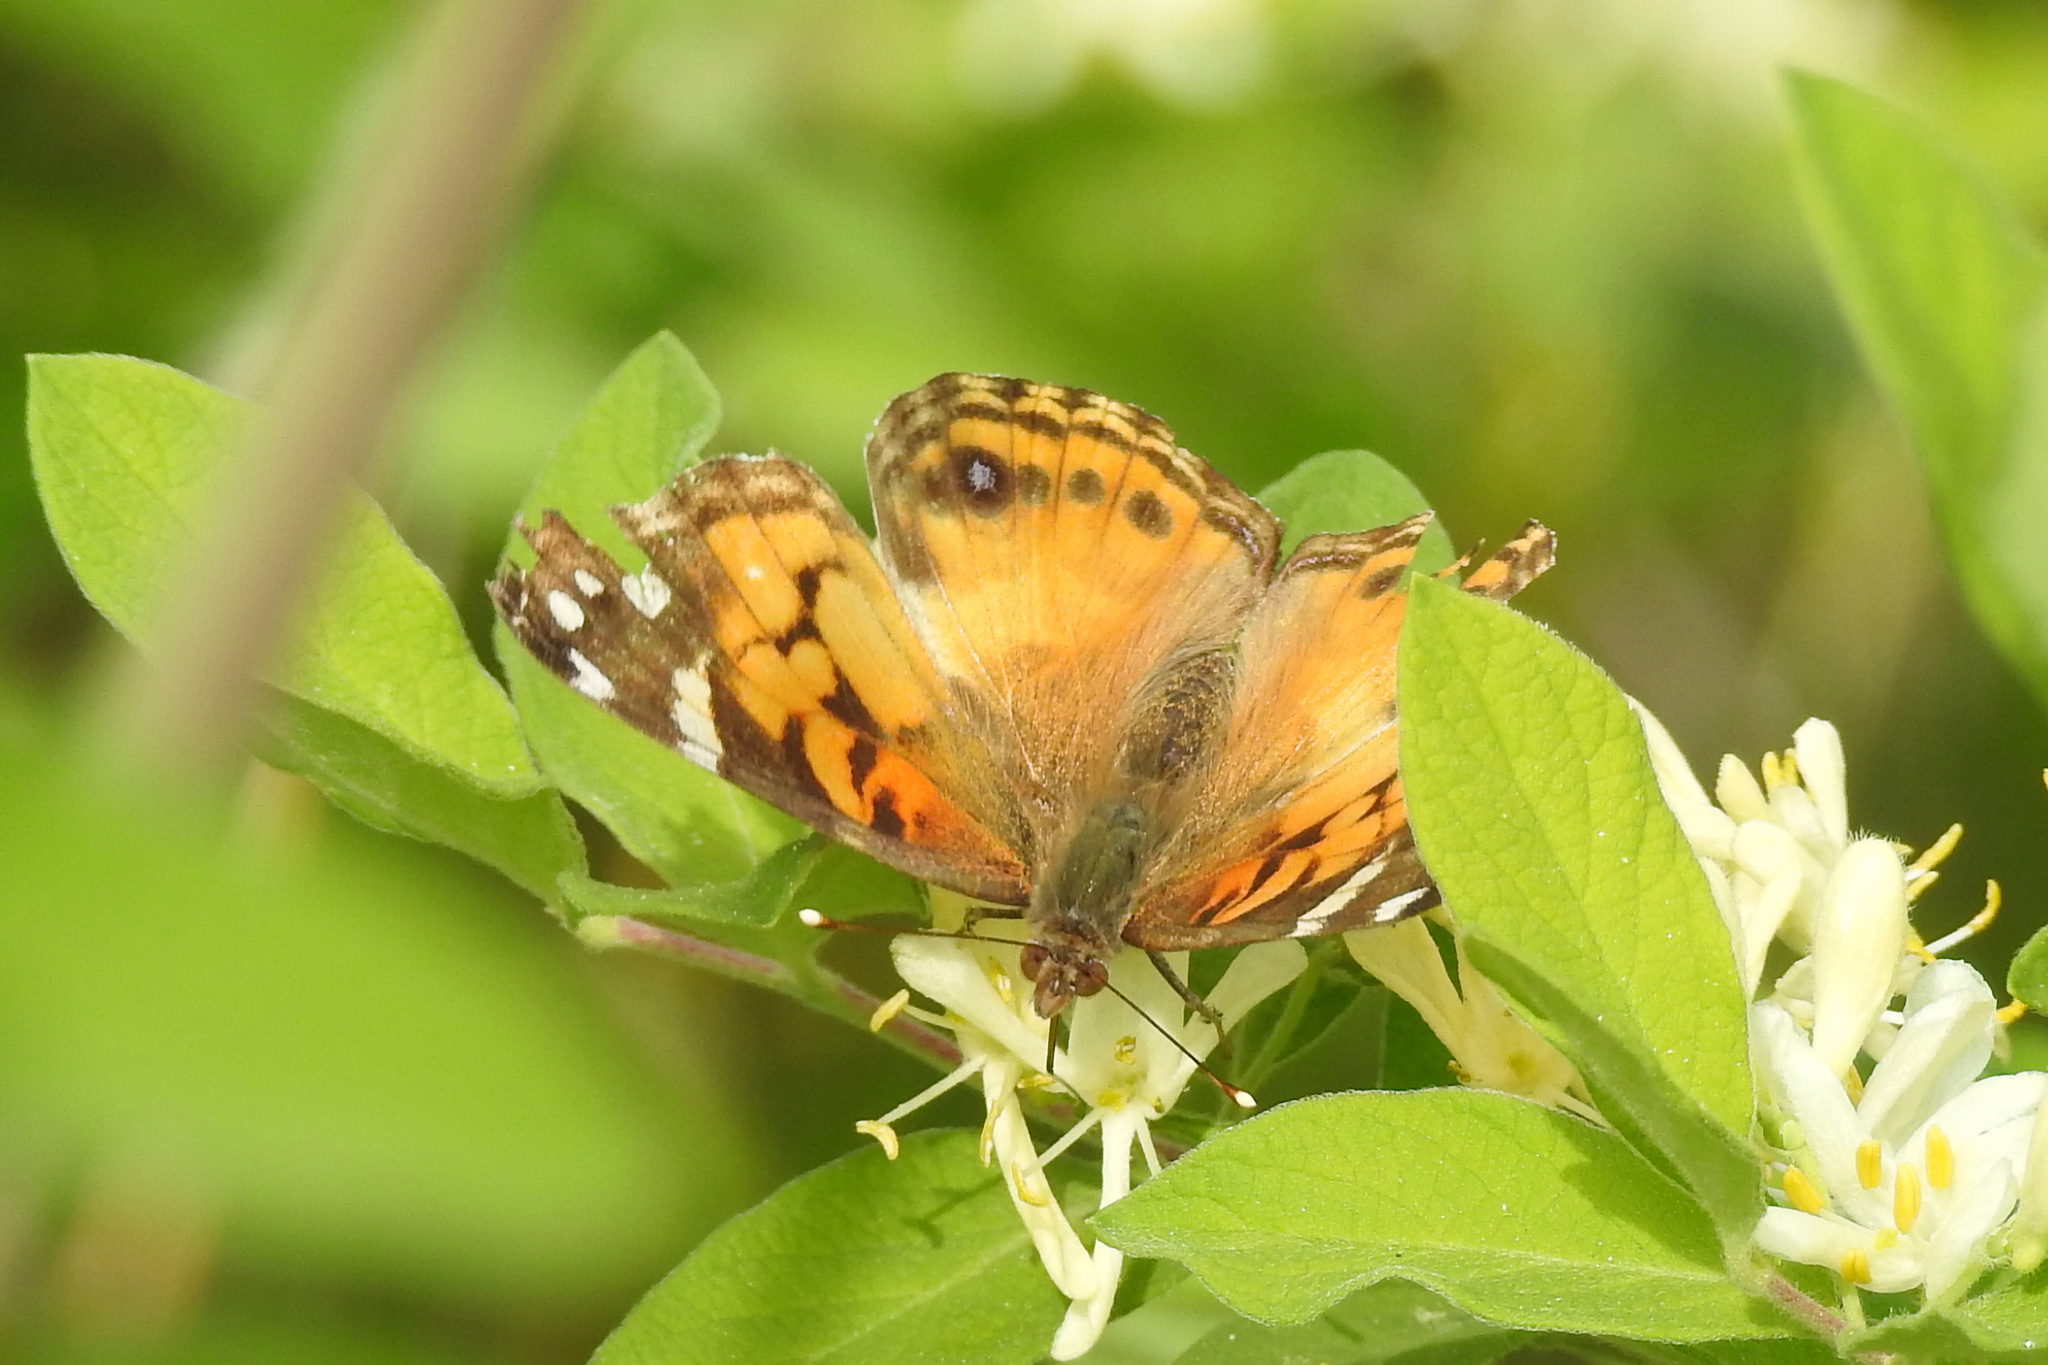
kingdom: Animalia
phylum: Arthropoda
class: Insecta
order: Lepidoptera
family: Nymphalidae
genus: Vanessa
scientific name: Vanessa virginiensis
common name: American lady
